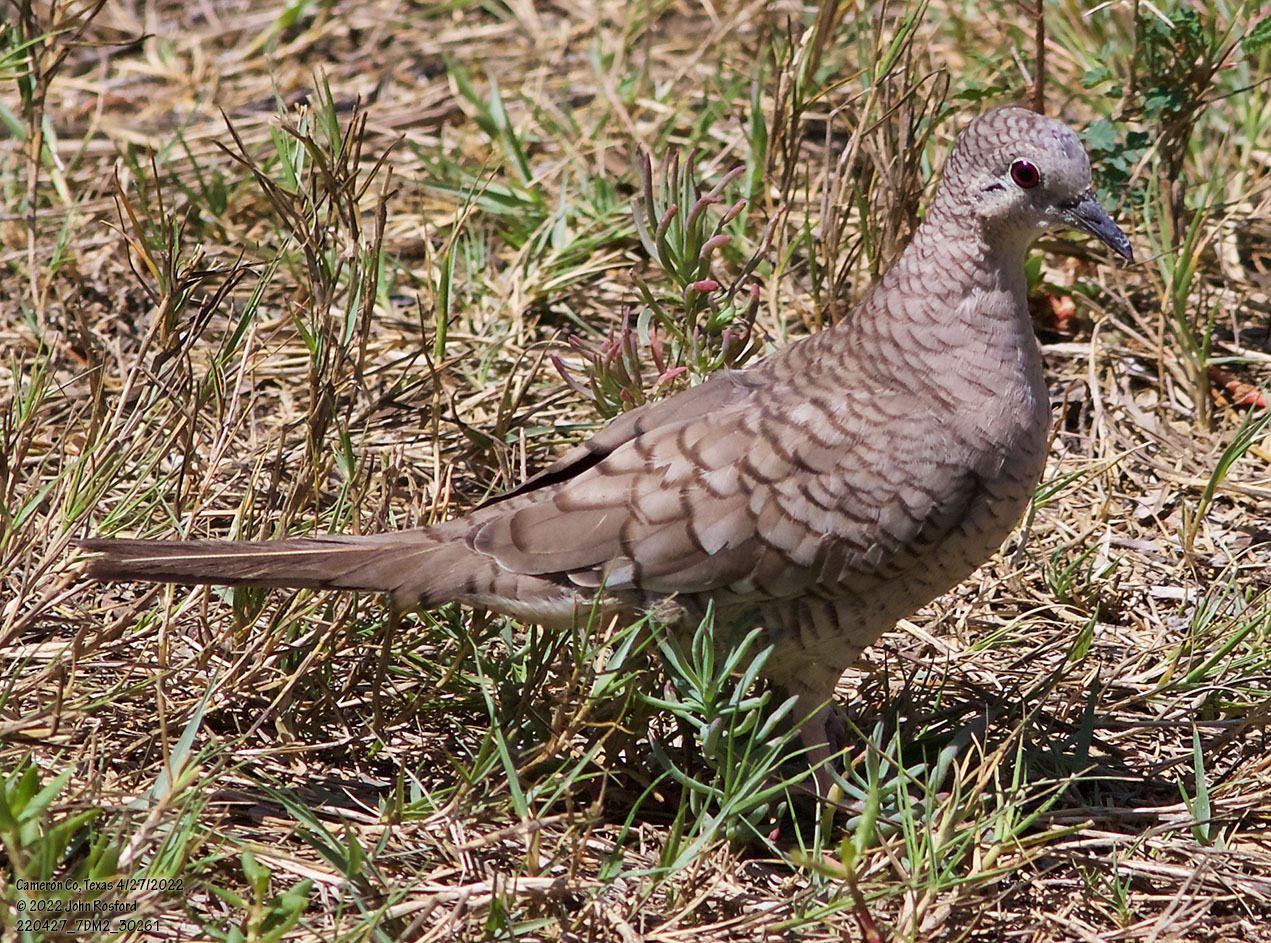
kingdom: Animalia
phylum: Chordata
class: Aves
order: Columbiformes
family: Columbidae
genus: Columbina
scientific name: Columbina inca
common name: Inca dove
